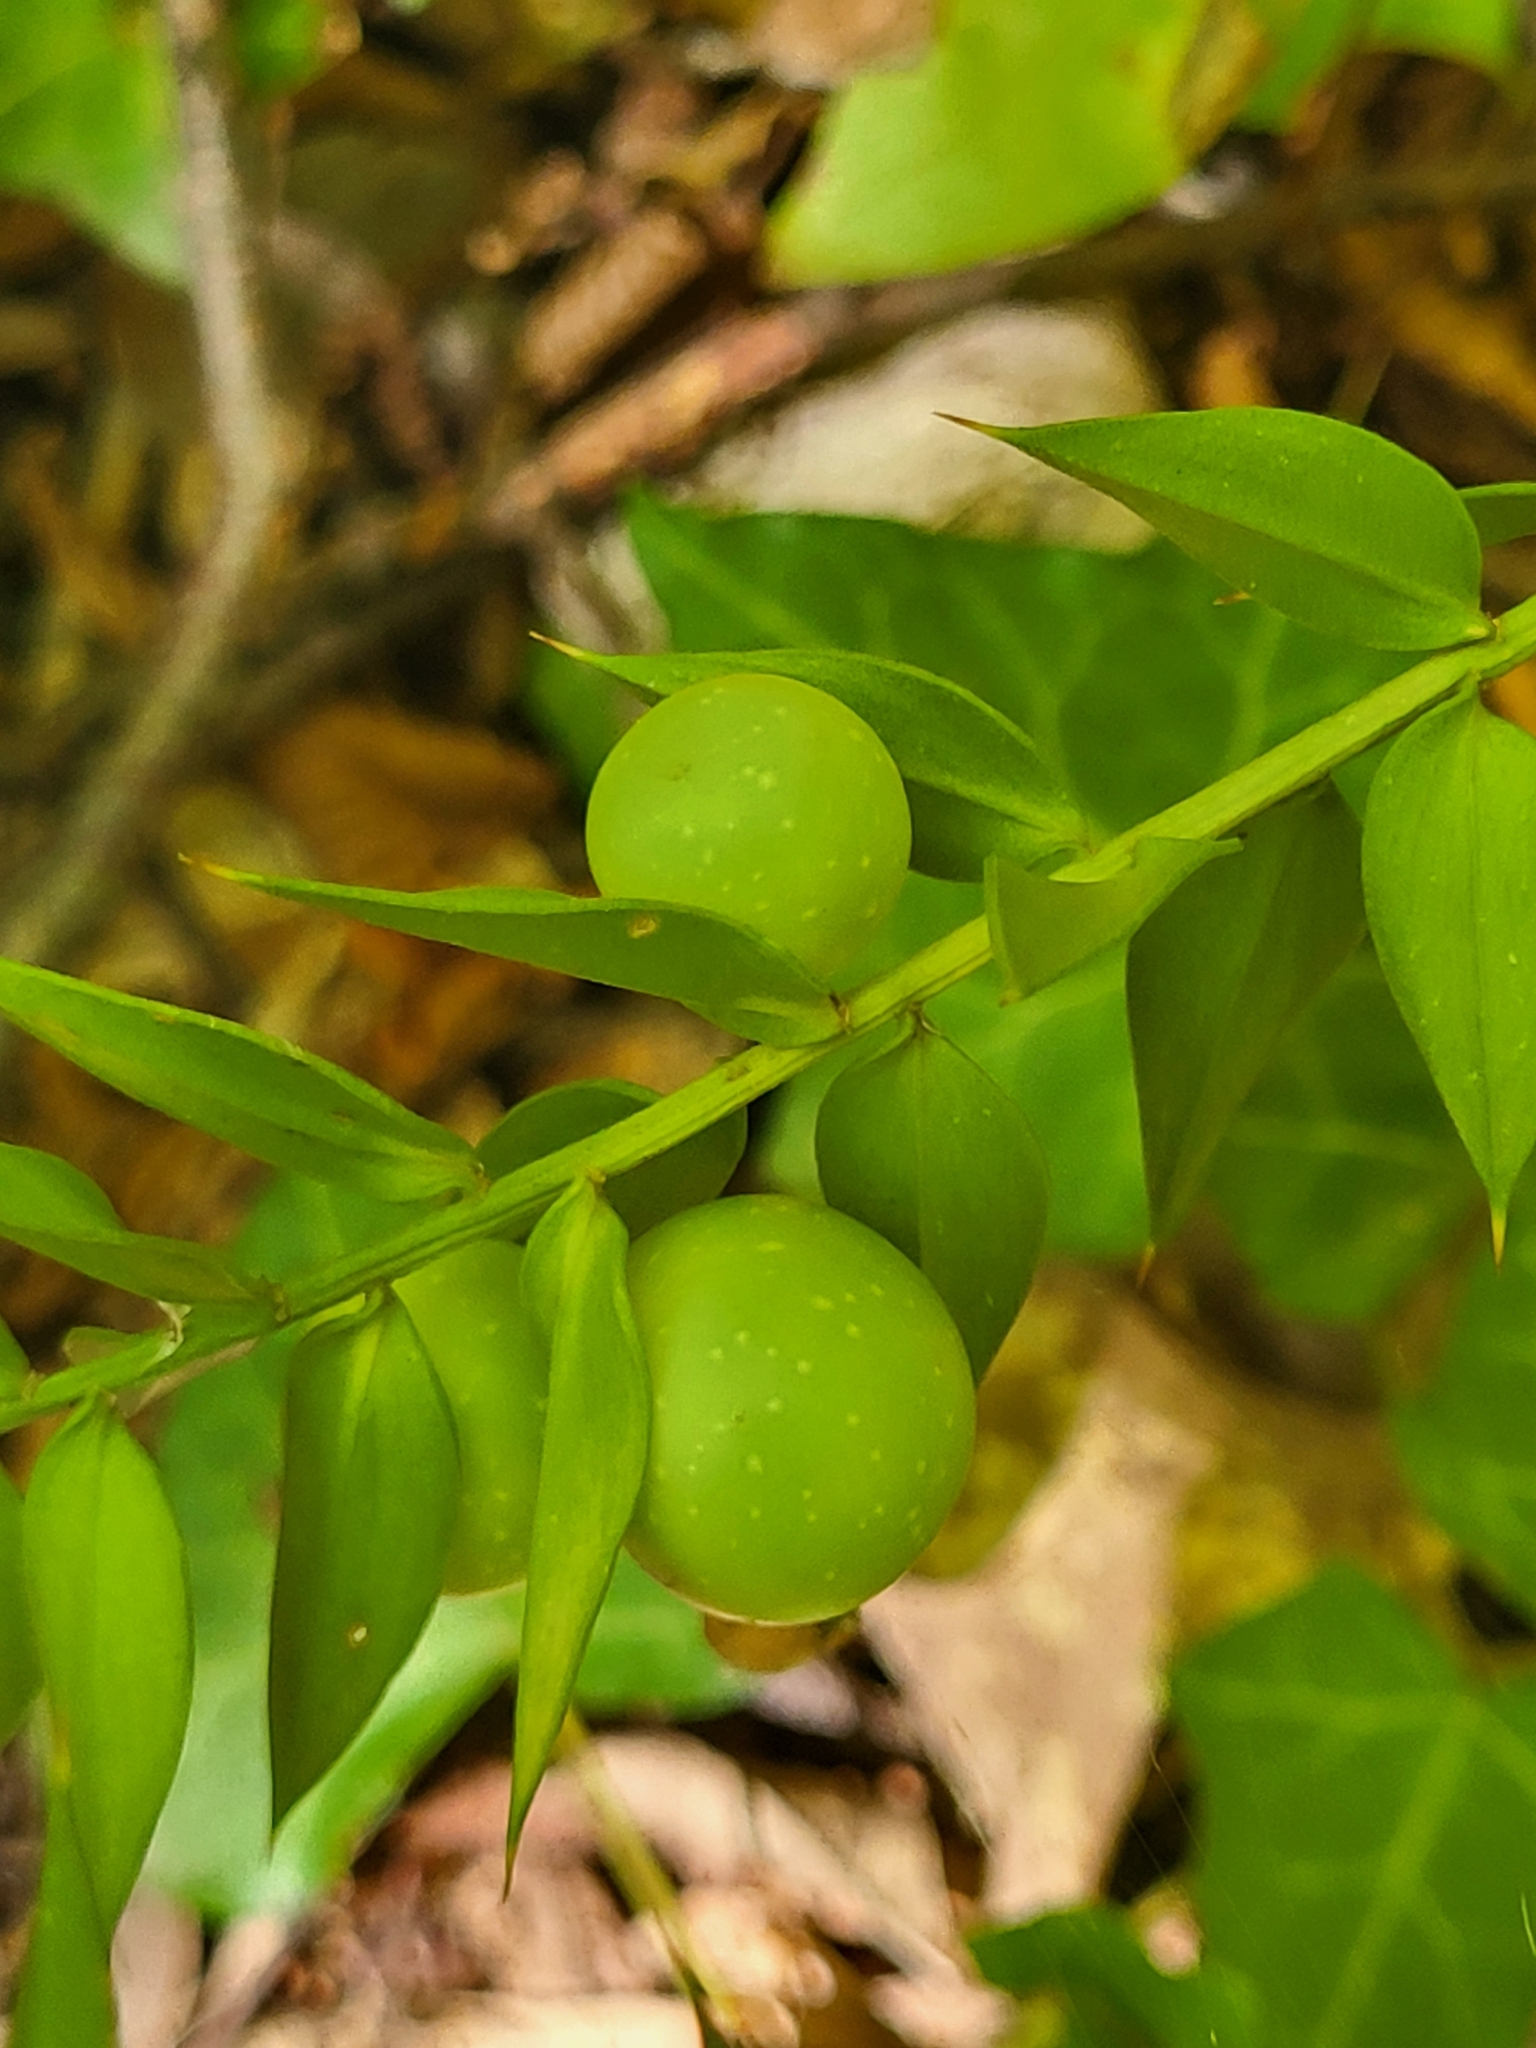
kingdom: Plantae
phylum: Tracheophyta
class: Liliopsida
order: Asparagales
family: Asparagaceae
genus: Ruscus
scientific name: Ruscus aculeatus
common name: Butcher's-broom
